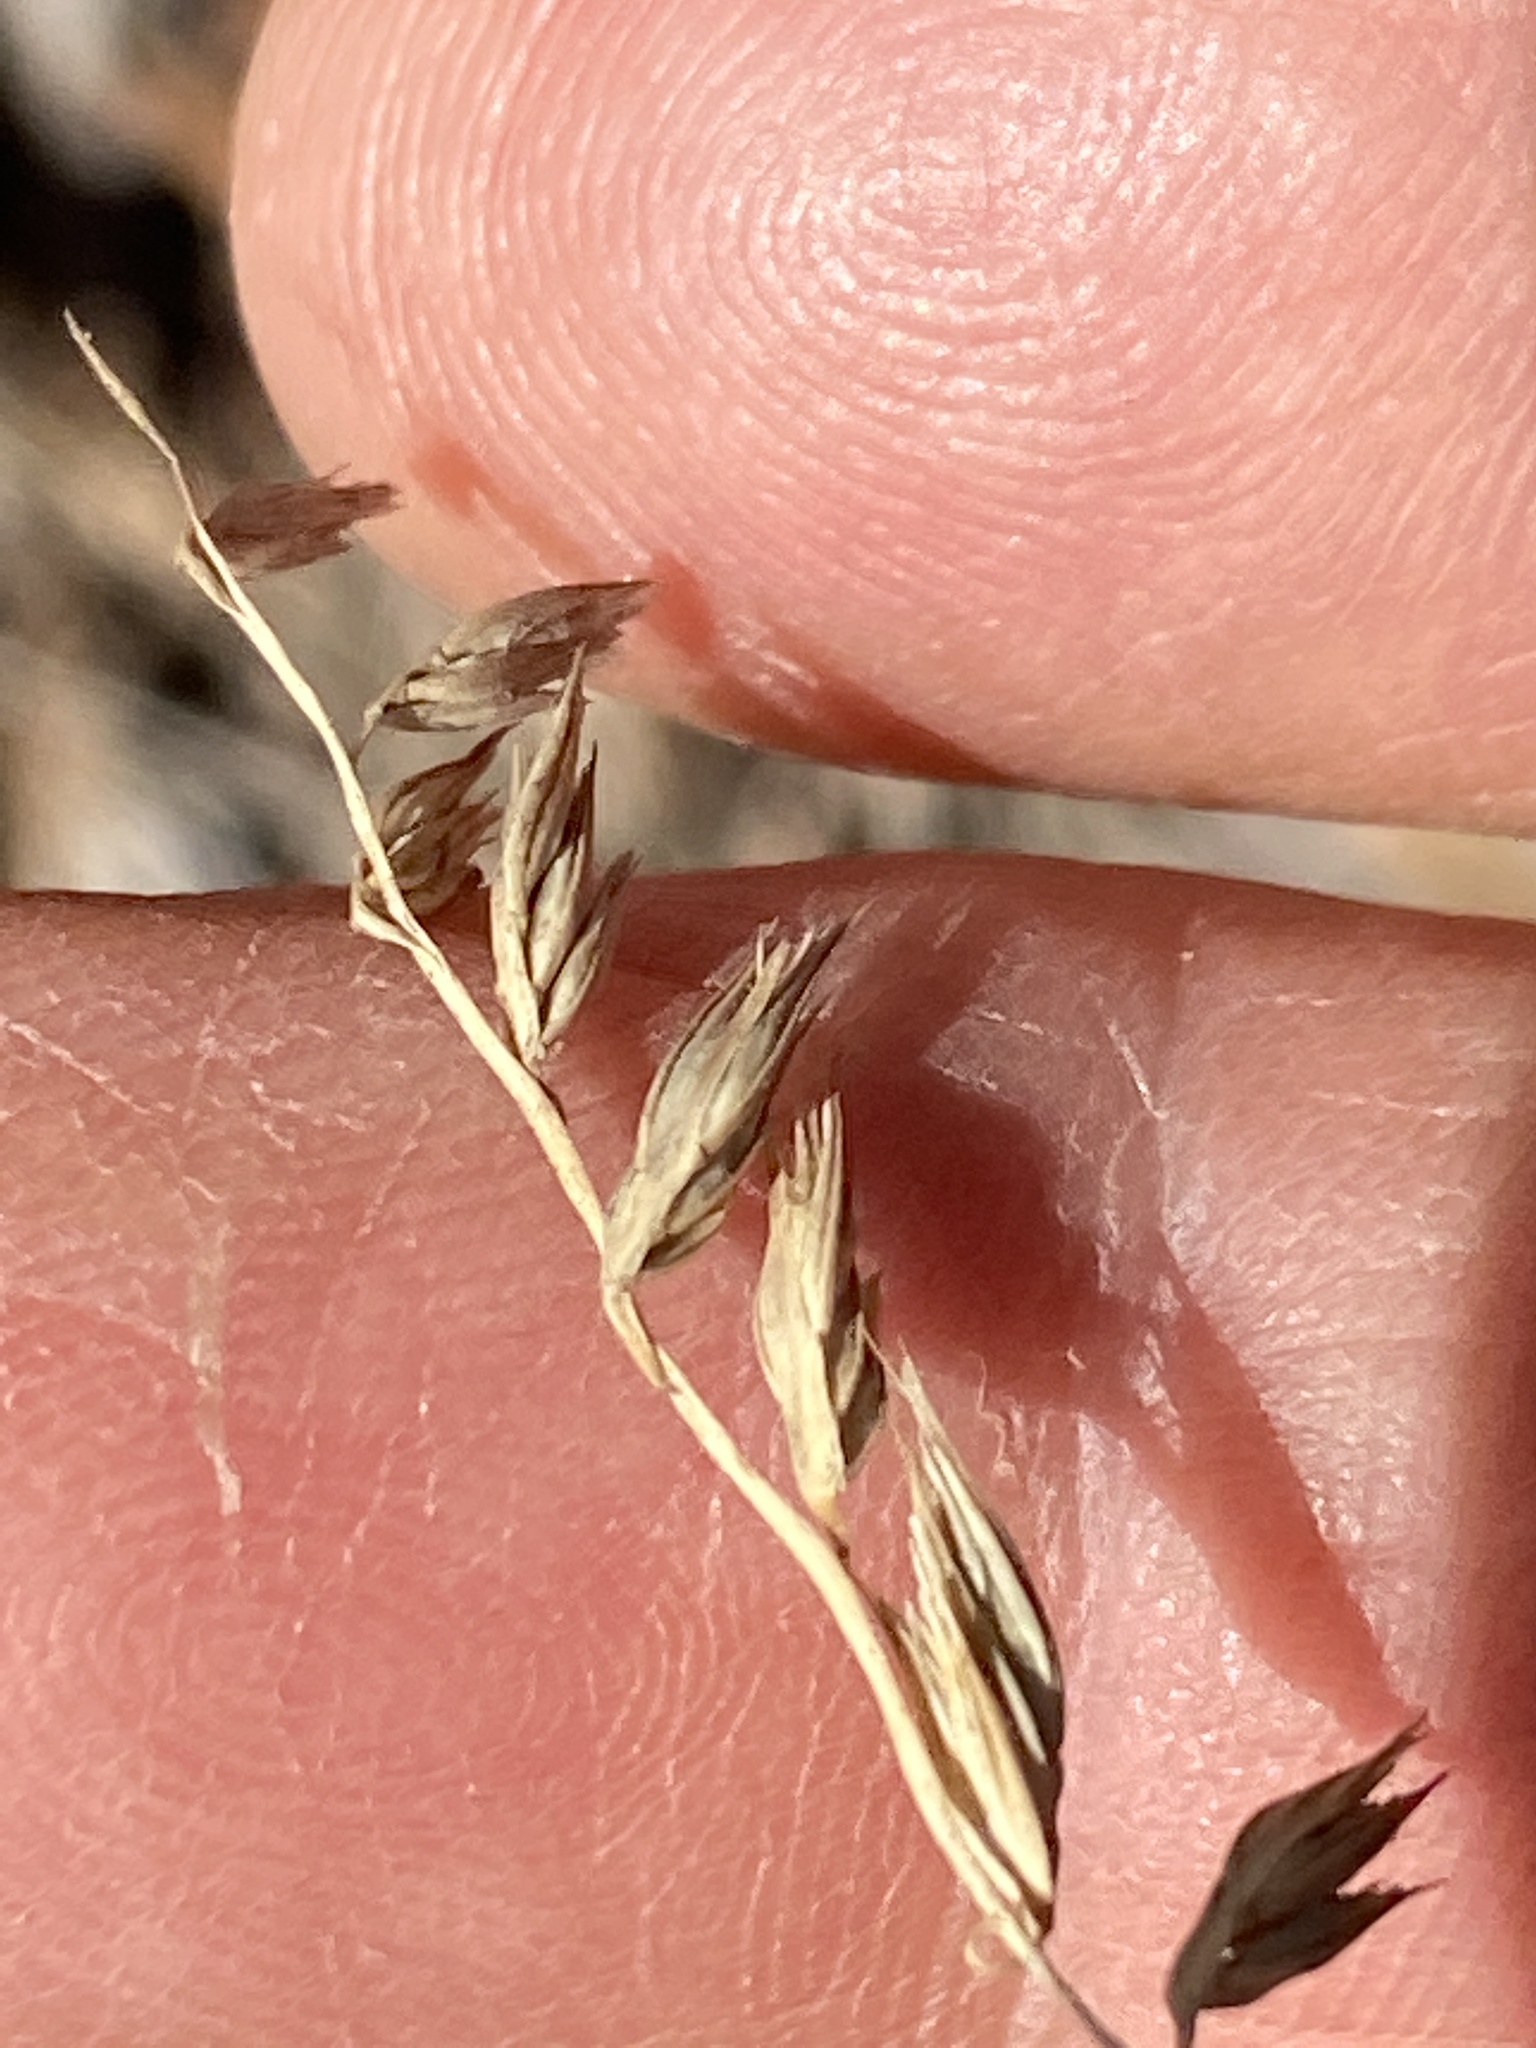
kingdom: Plantae
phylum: Tracheophyta
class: Liliopsida
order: Poales
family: Poaceae
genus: Bouteloua
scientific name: Bouteloua curtipendula
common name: Side-oats grama
